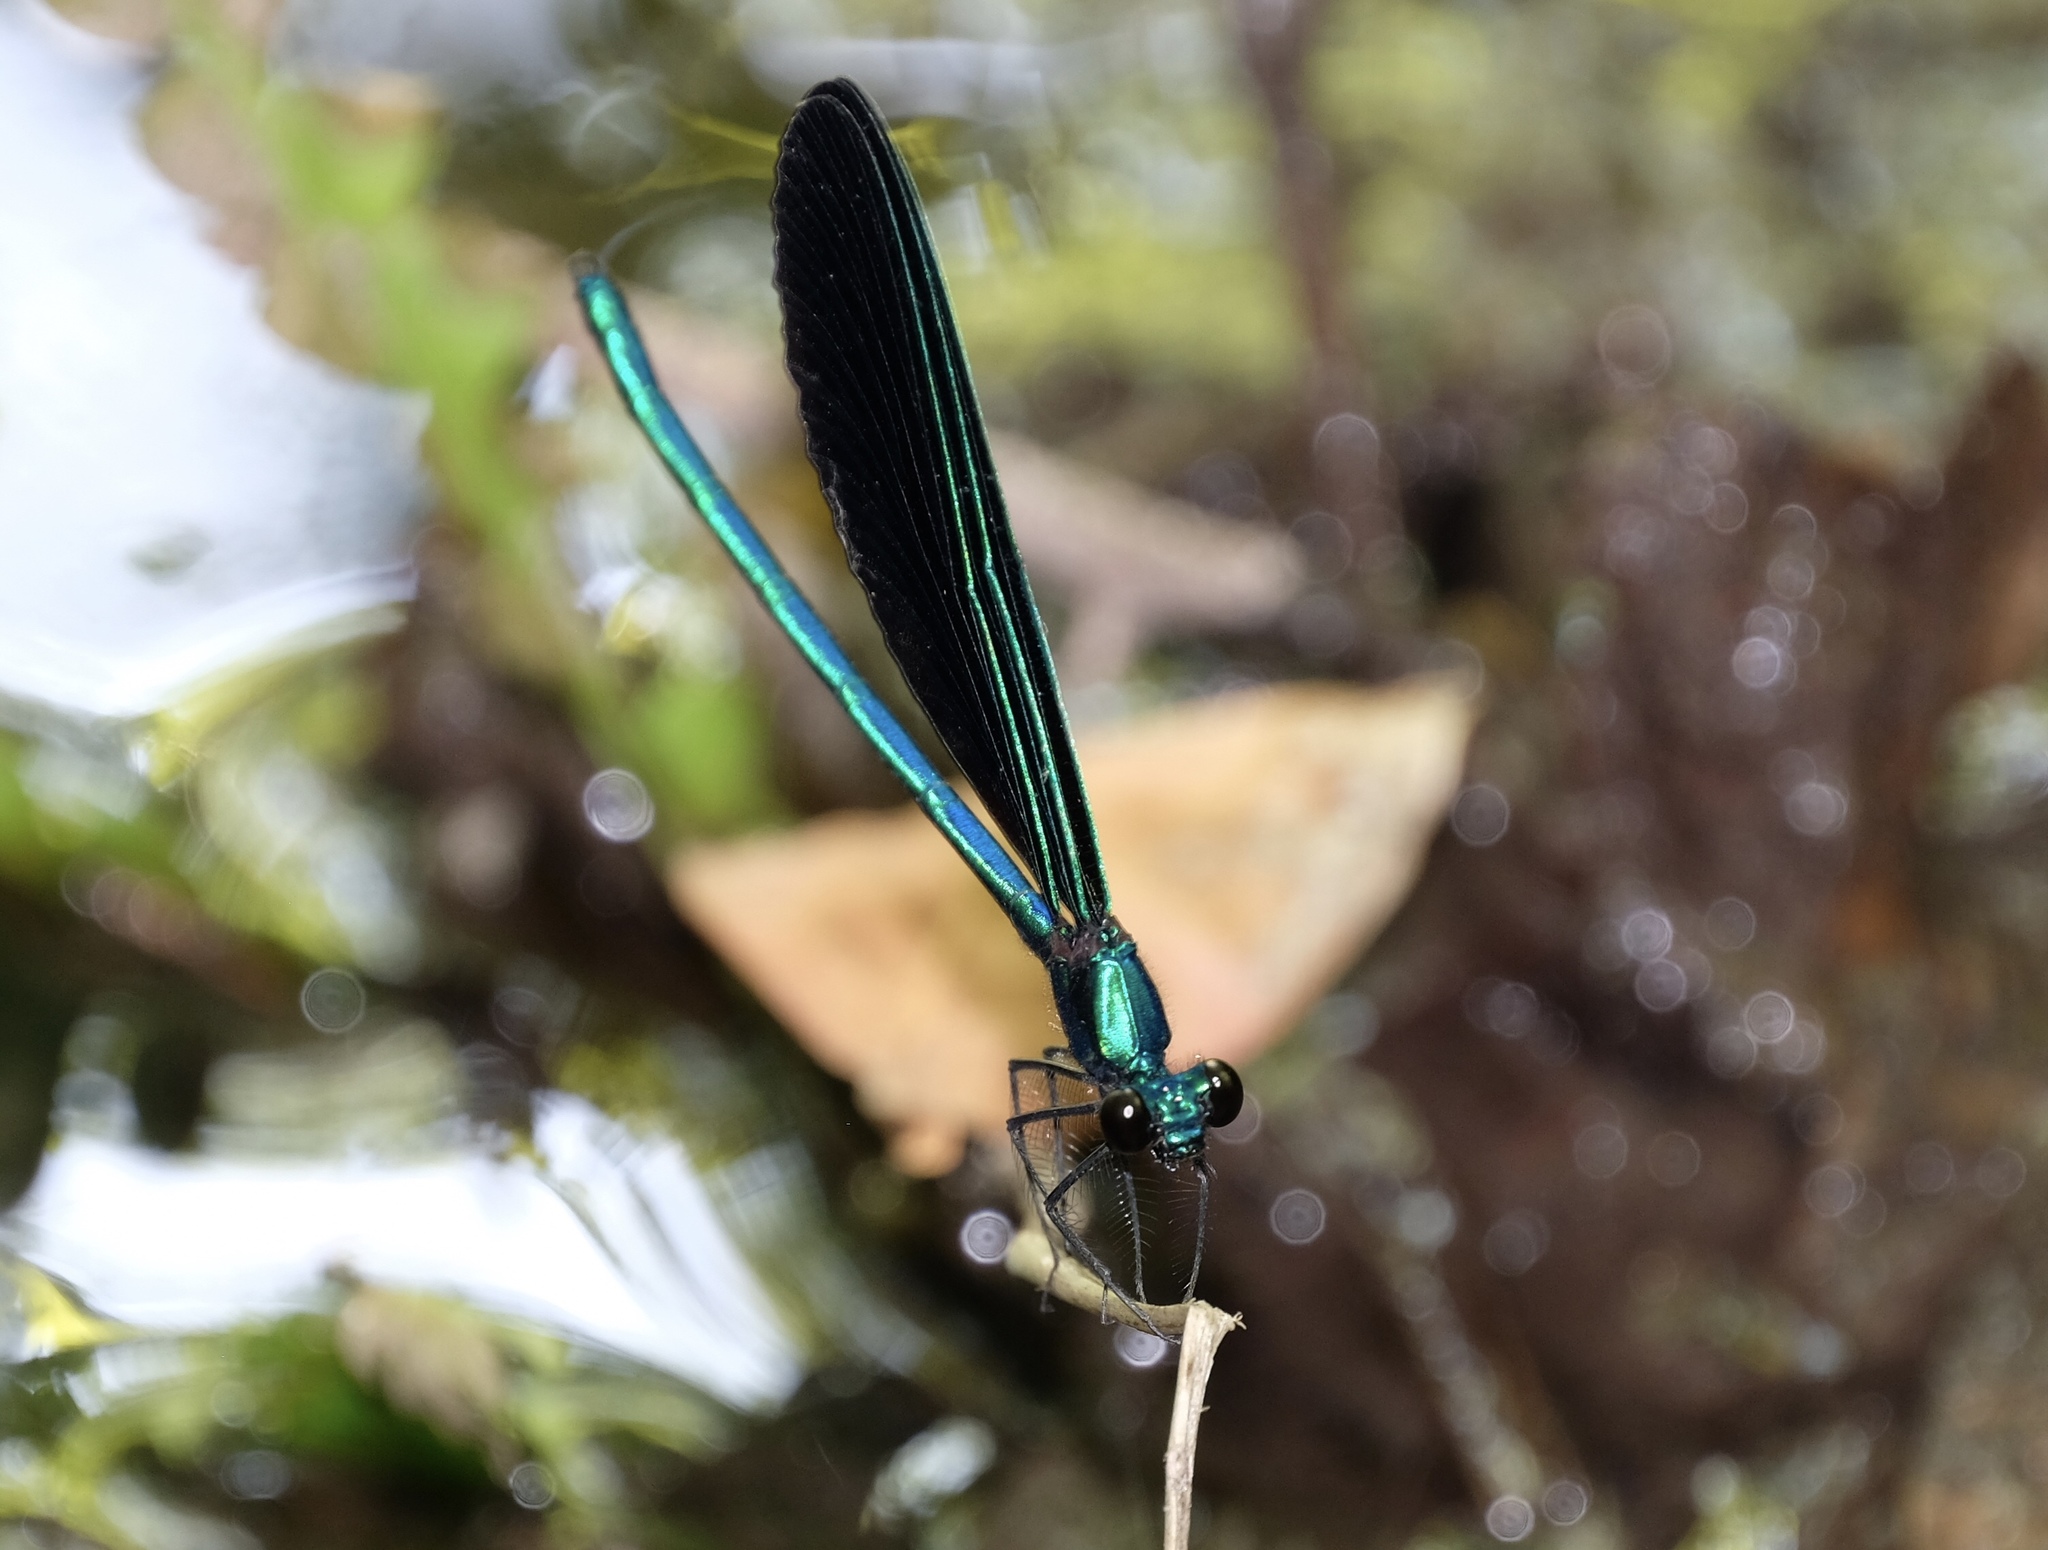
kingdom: Animalia
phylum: Arthropoda
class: Insecta
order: Odonata
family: Calopterygidae
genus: Calopteryx
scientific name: Calopteryx maculata
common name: Ebony jewelwing
